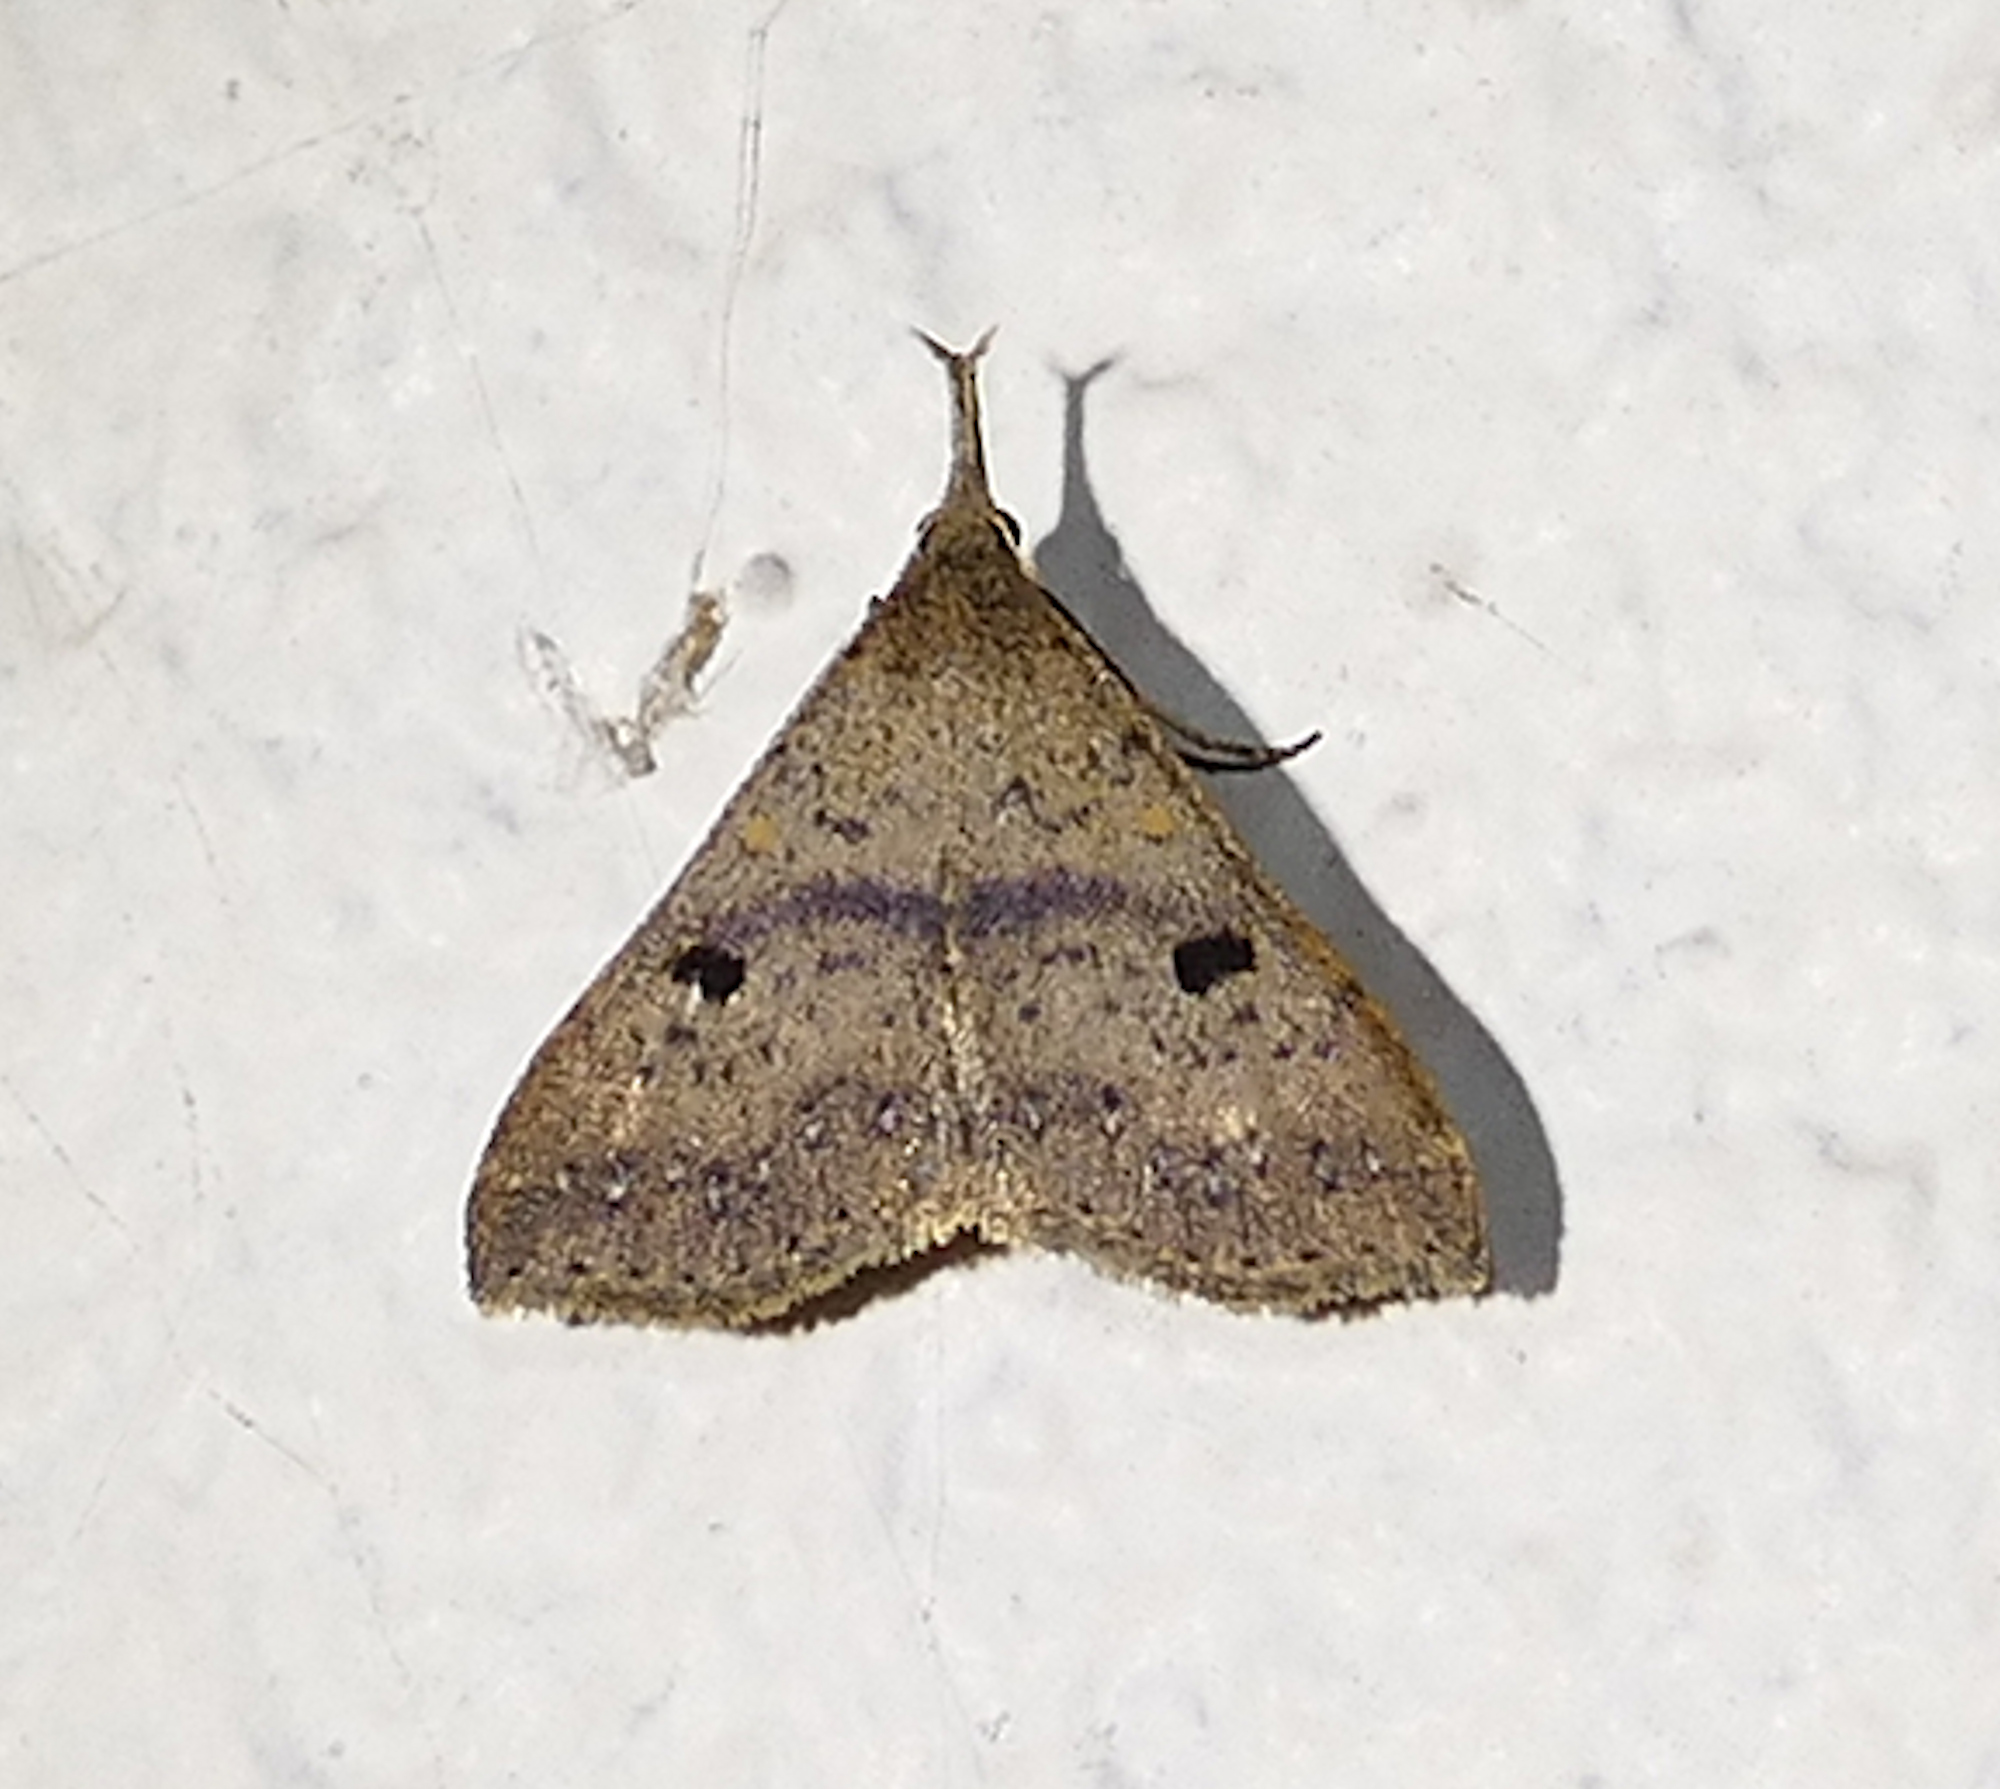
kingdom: Animalia
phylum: Arthropoda
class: Insecta
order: Lepidoptera
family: Erebidae
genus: Renia
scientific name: Renia adspergillus
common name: Speckled renia moth
